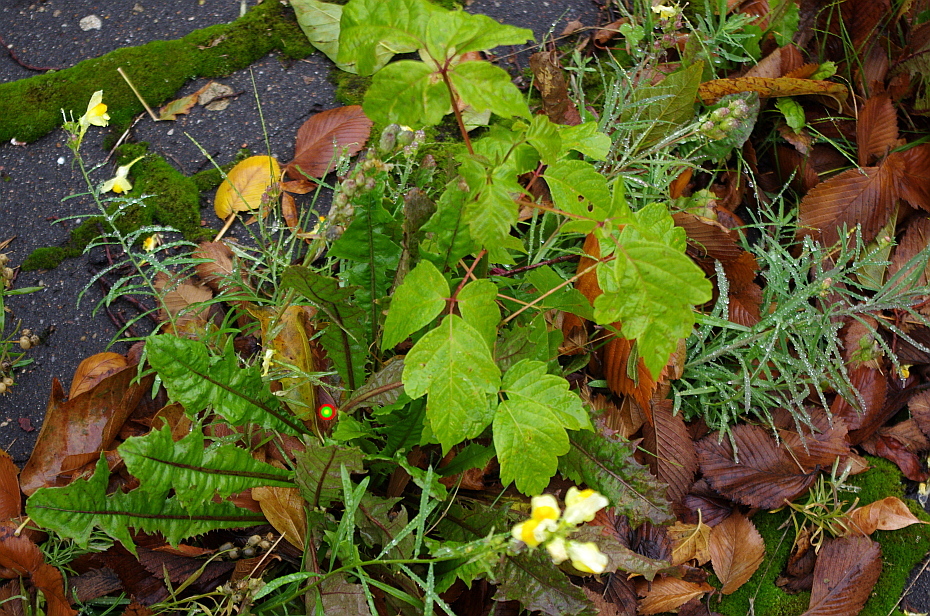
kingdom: Plantae
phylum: Tracheophyta
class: Magnoliopsida
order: Asterales
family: Asteraceae
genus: Taraxacum
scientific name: Taraxacum officinale
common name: Common dandelion
